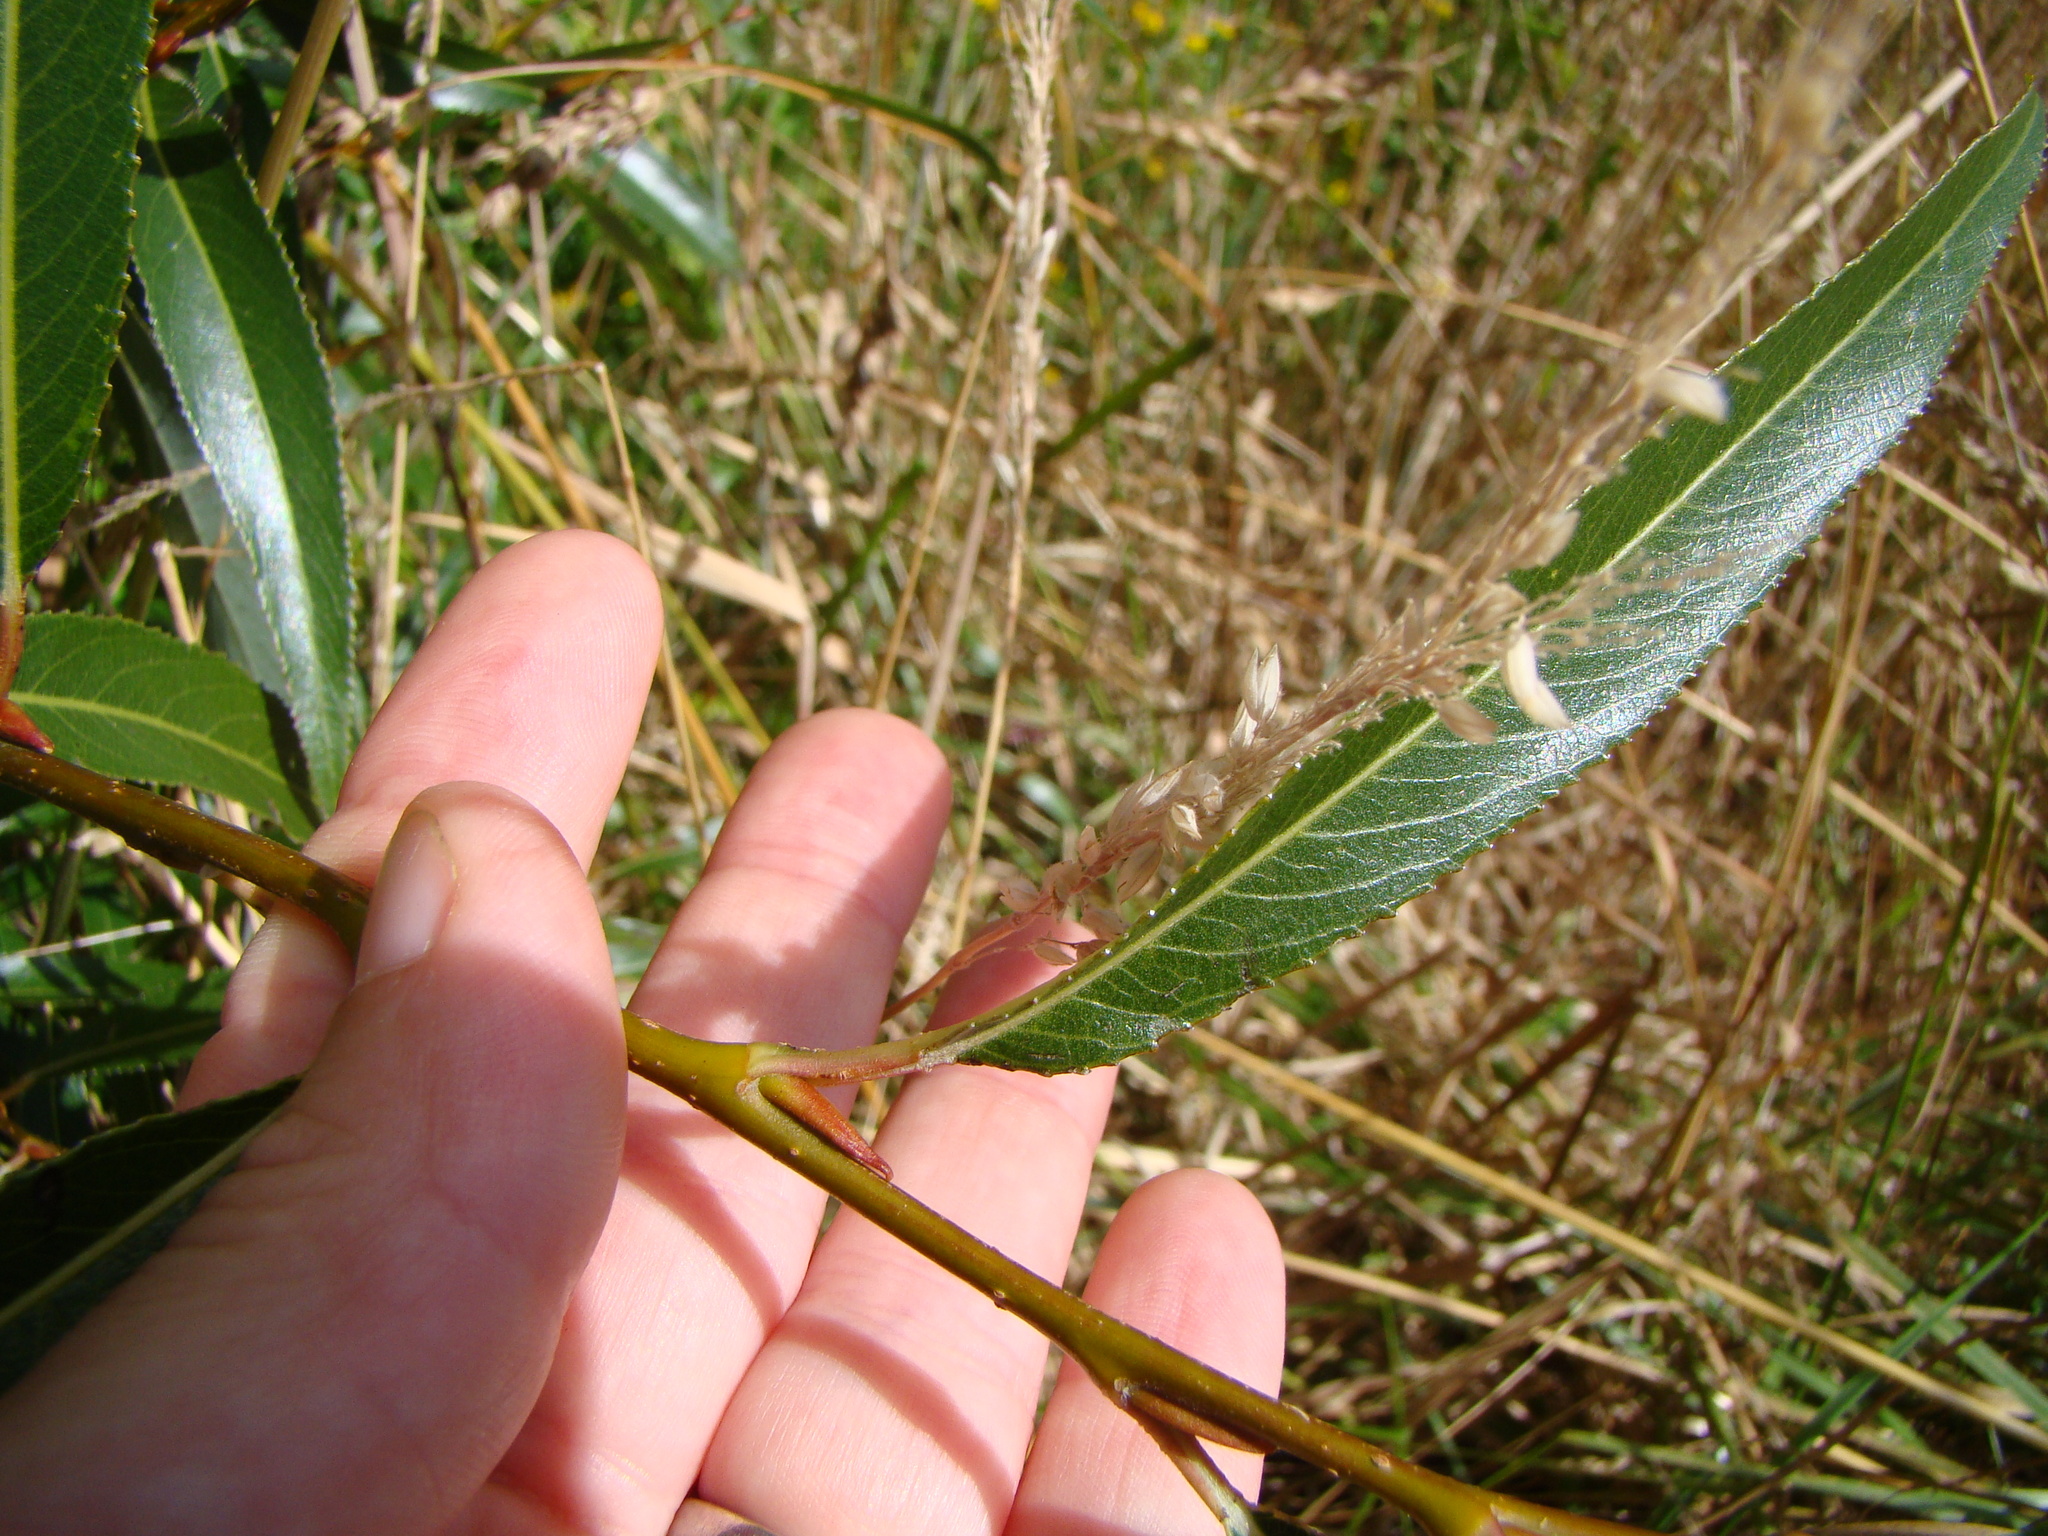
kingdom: Plantae
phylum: Tracheophyta
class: Magnoliopsida
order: Malpighiales
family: Salicaceae
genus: Salix
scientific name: Salix fragilis
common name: Crack willow
